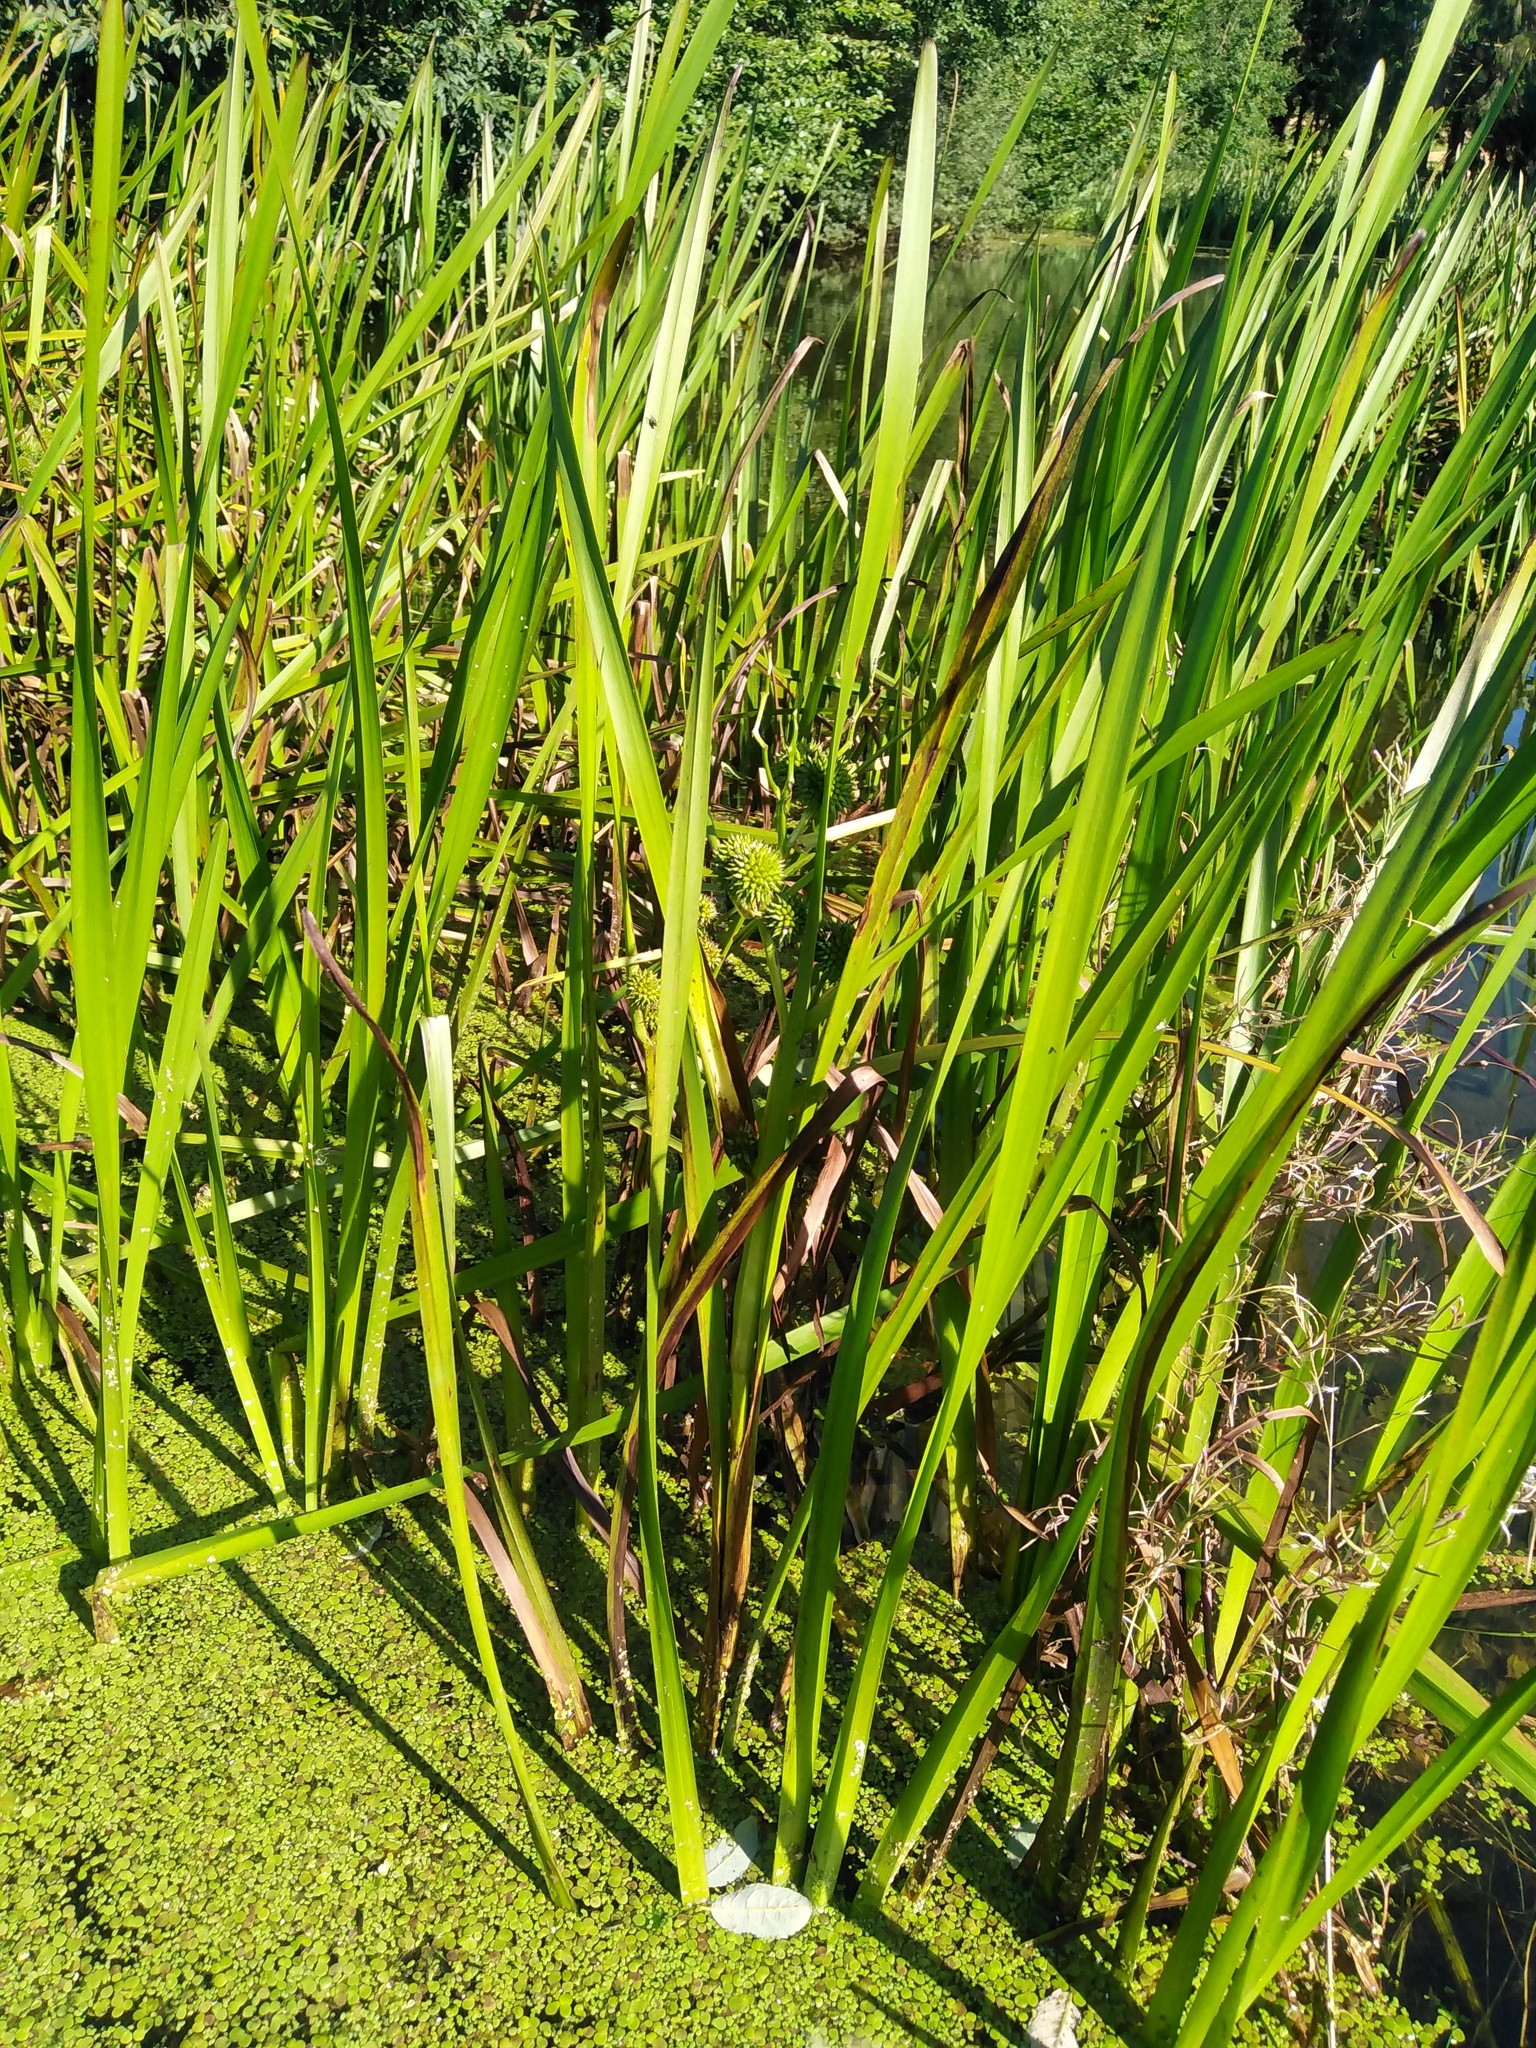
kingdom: Plantae
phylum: Tracheophyta
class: Liliopsida
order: Poales
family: Typhaceae
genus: Sparganium
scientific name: Sparganium erectum
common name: Branched bur-reed
